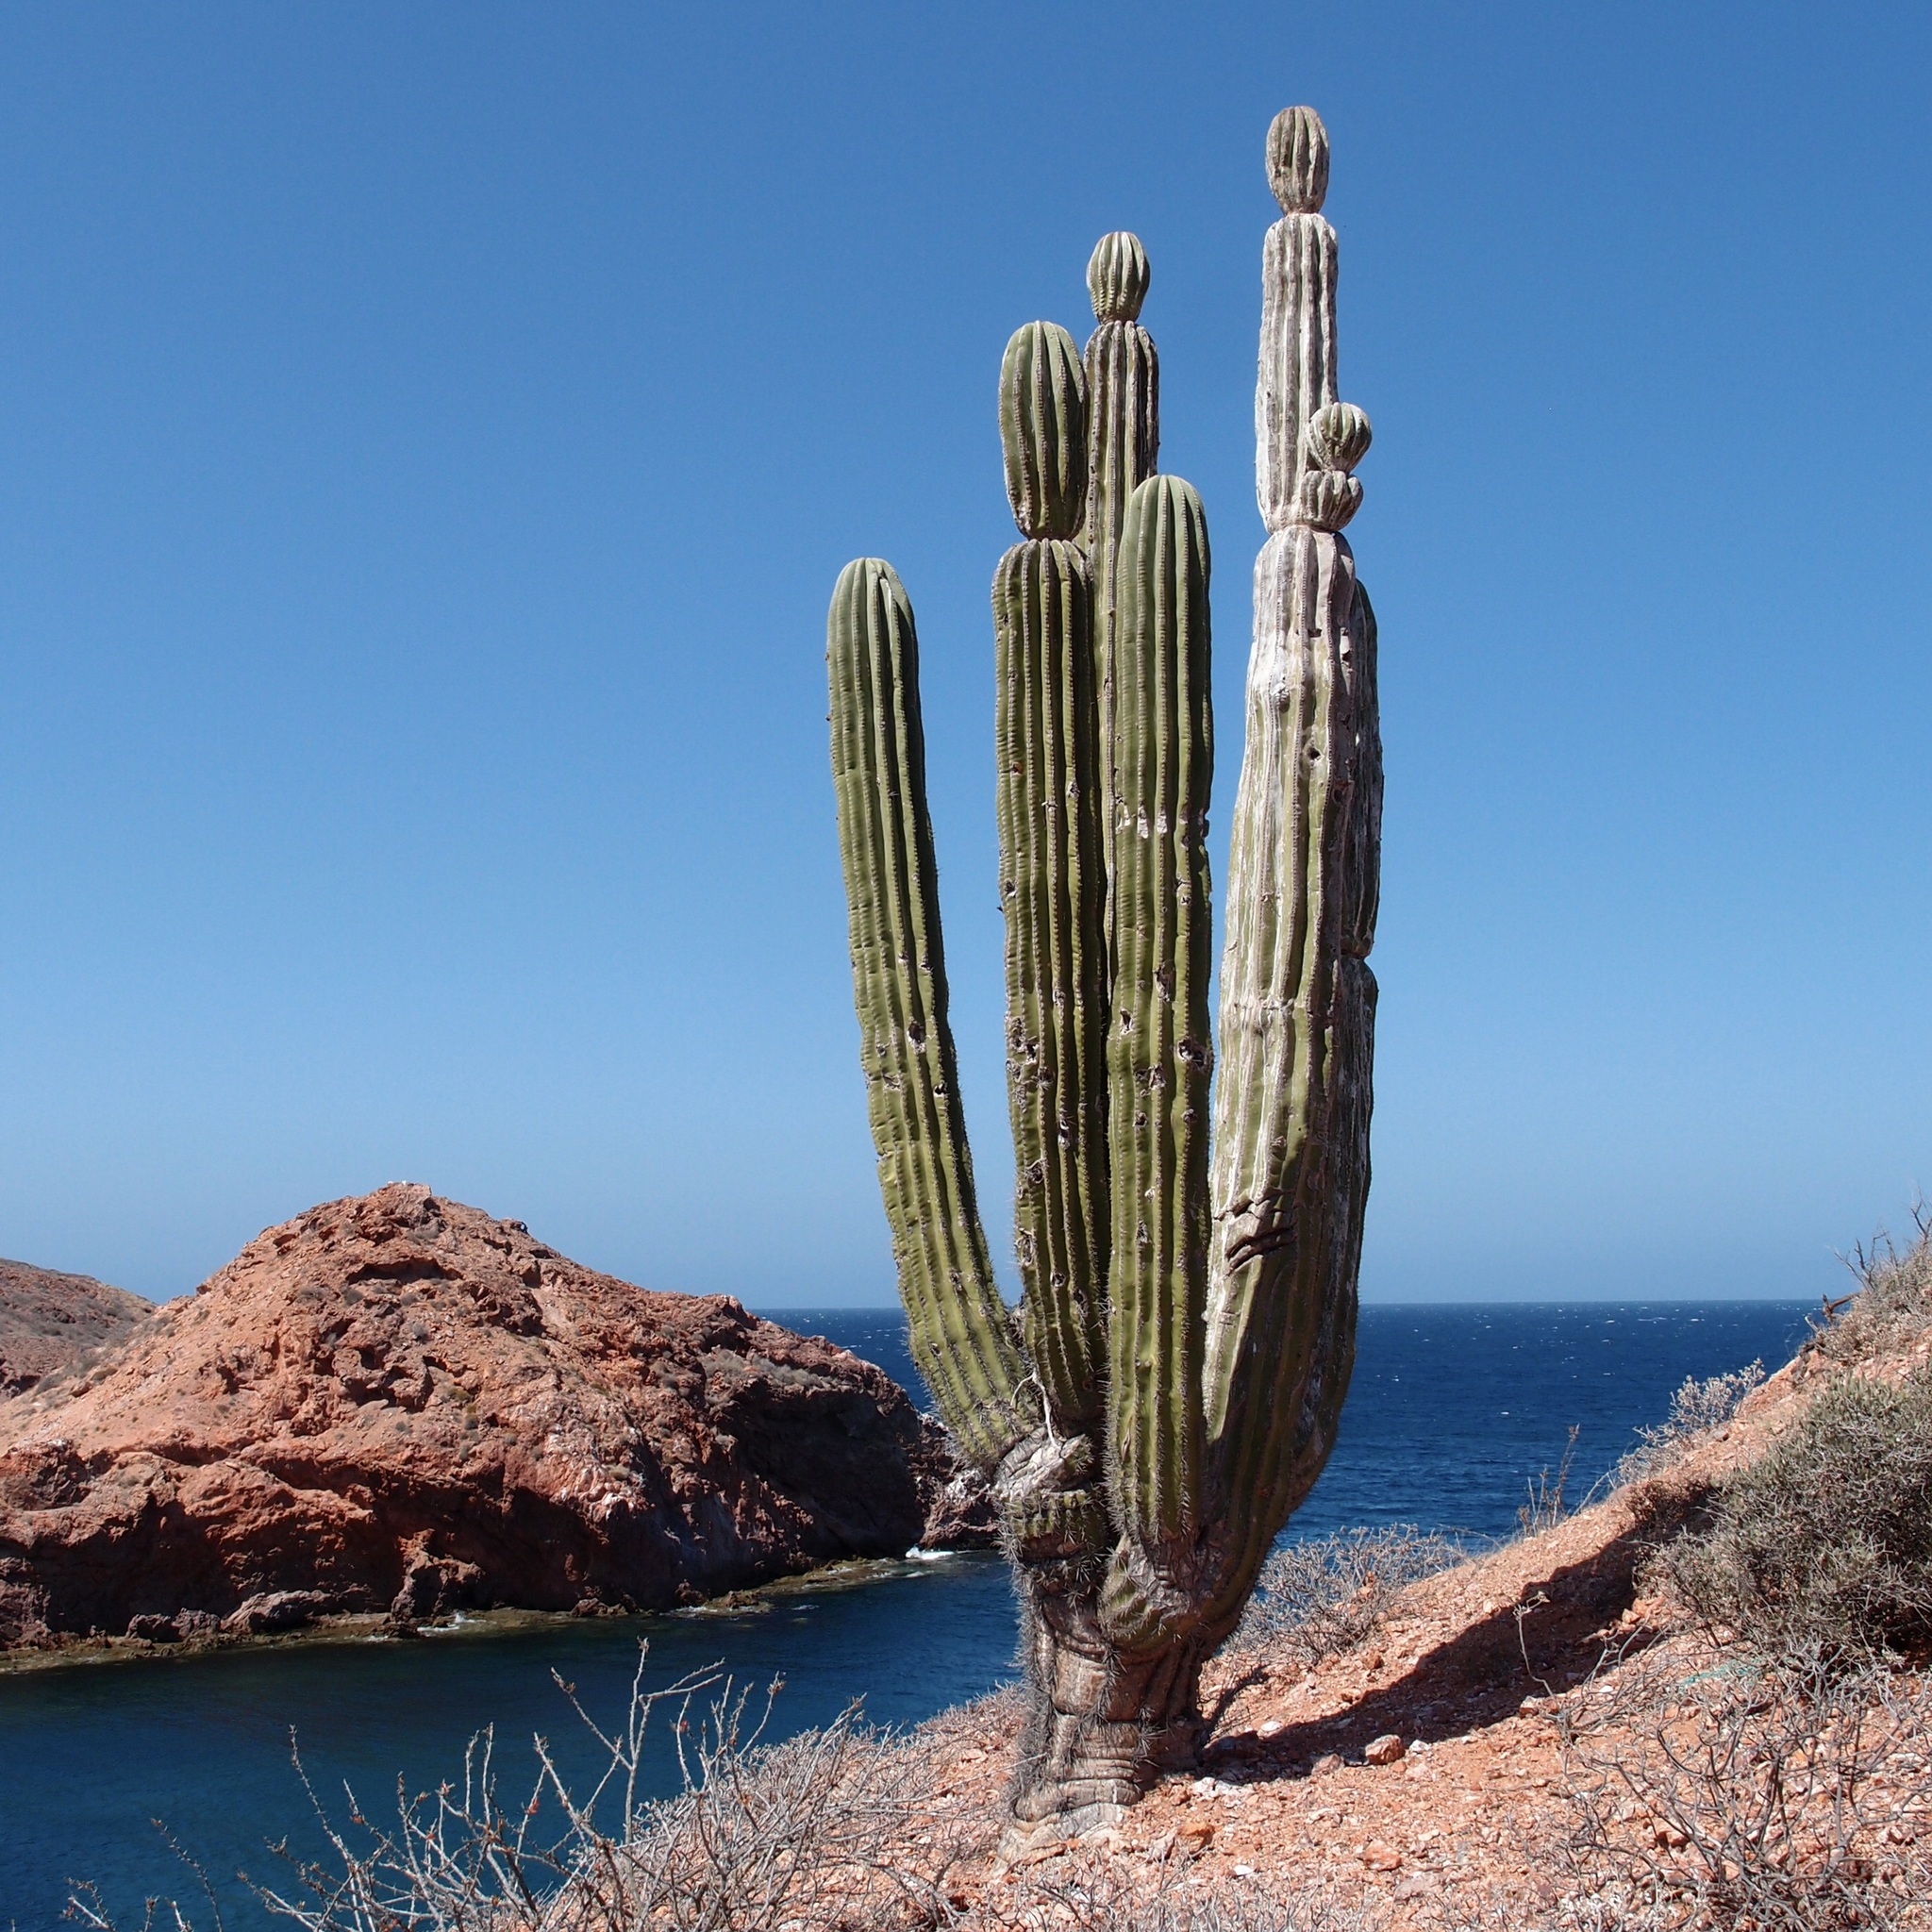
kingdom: Plantae
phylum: Tracheophyta
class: Magnoliopsida
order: Caryophyllales
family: Cactaceae
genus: Pachycereus
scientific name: Pachycereus pringlei
